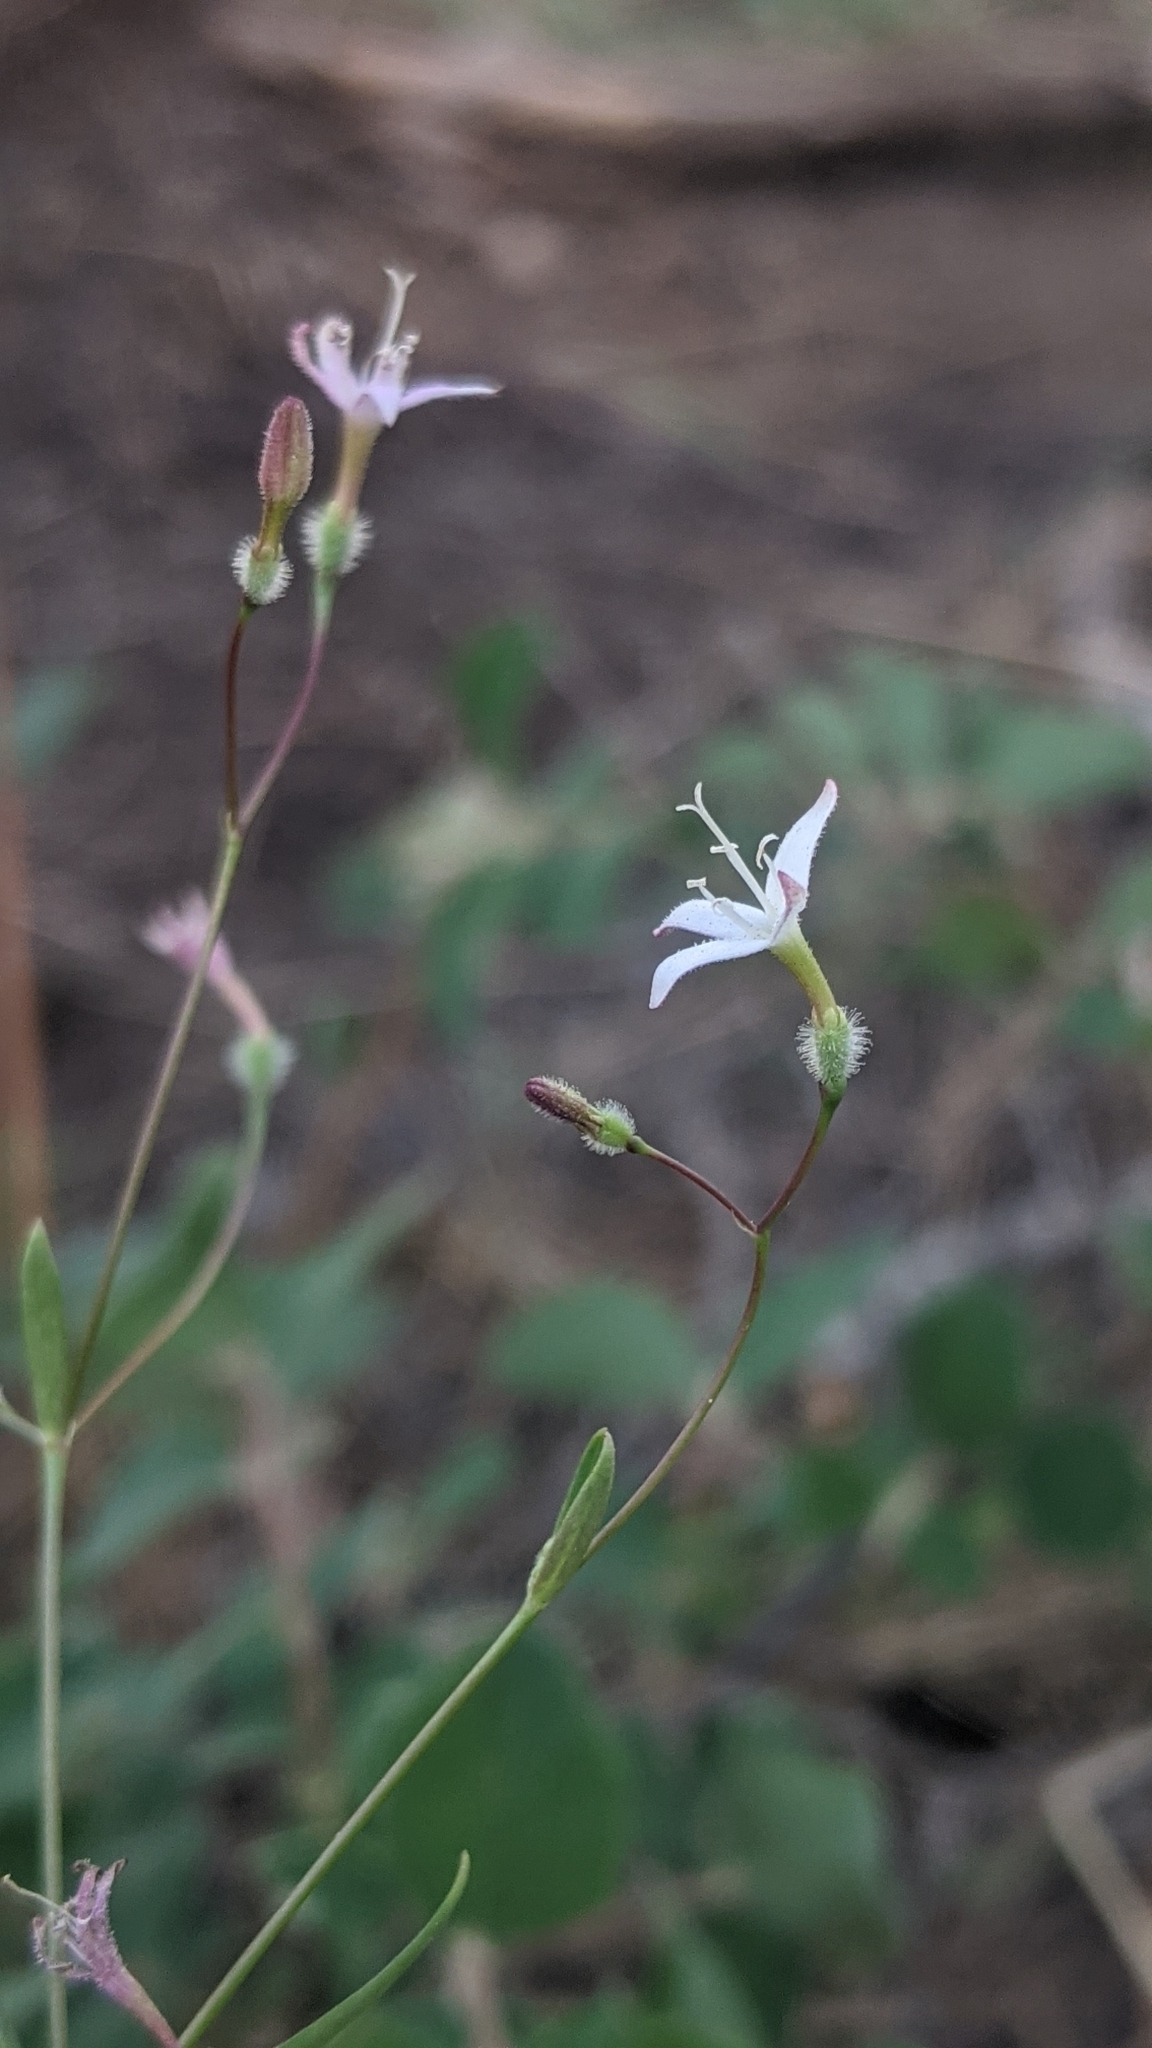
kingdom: Plantae
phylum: Tracheophyta
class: Magnoliopsida
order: Gentianales
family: Rubiaceae
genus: Kelloggia
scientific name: Kelloggia galioides
